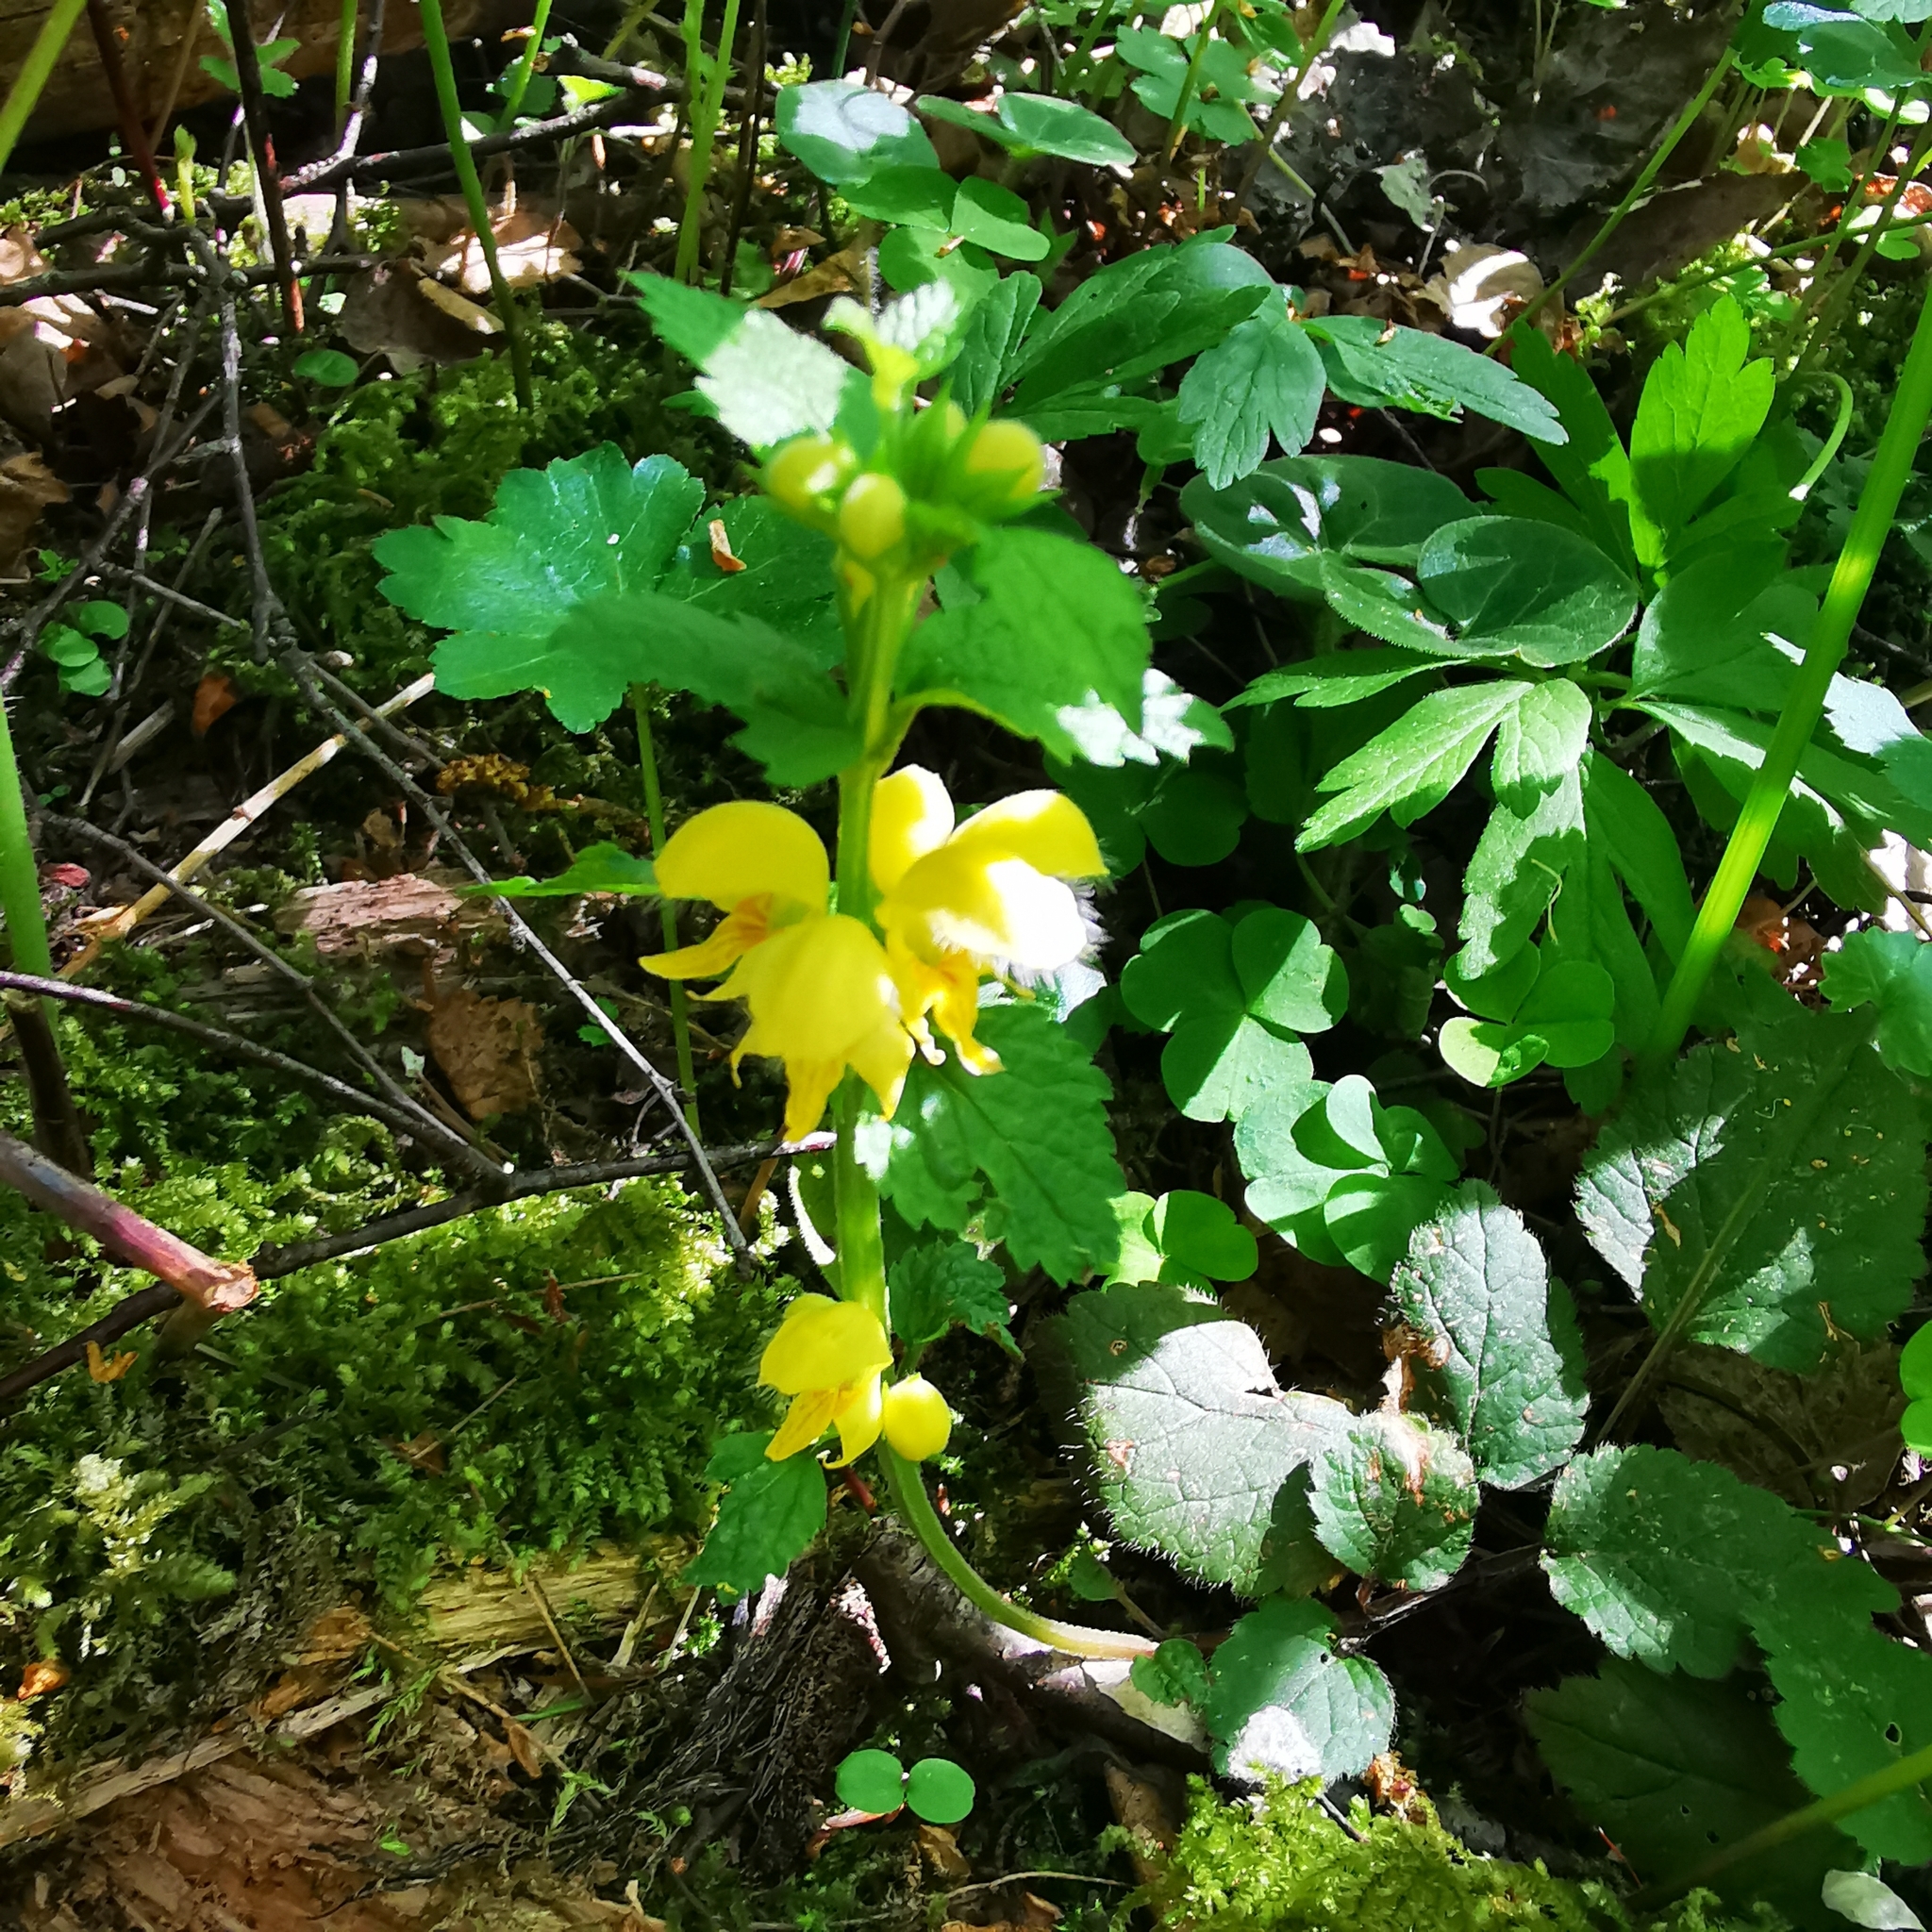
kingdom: Plantae
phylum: Tracheophyta
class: Magnoliopsida
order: Lamiales
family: Lamiaceae
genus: Lamium
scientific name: Lamium galeobdolon
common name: Yellow archangel
